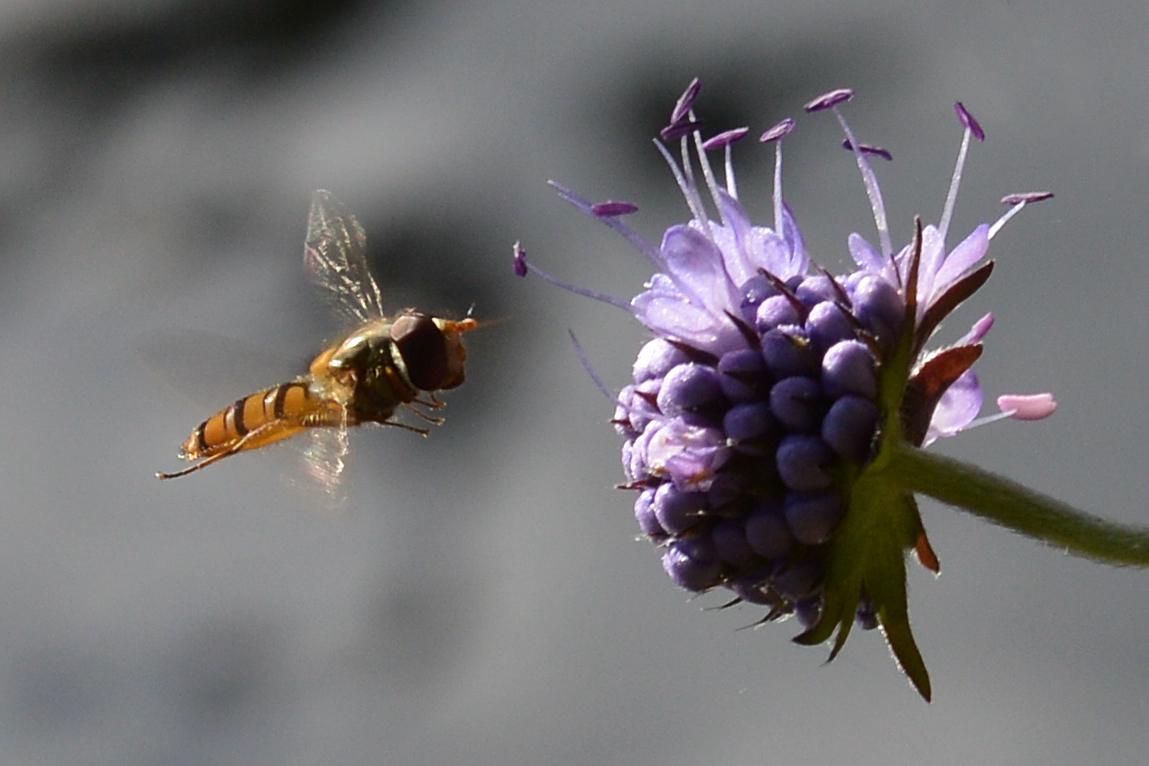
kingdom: Plantae
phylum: Tracheophyta
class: Magnoliopsida
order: Dipsacales
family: Caprifoliaceae
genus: Succisa
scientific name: Succisa pratensis
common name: Devil's-bit
